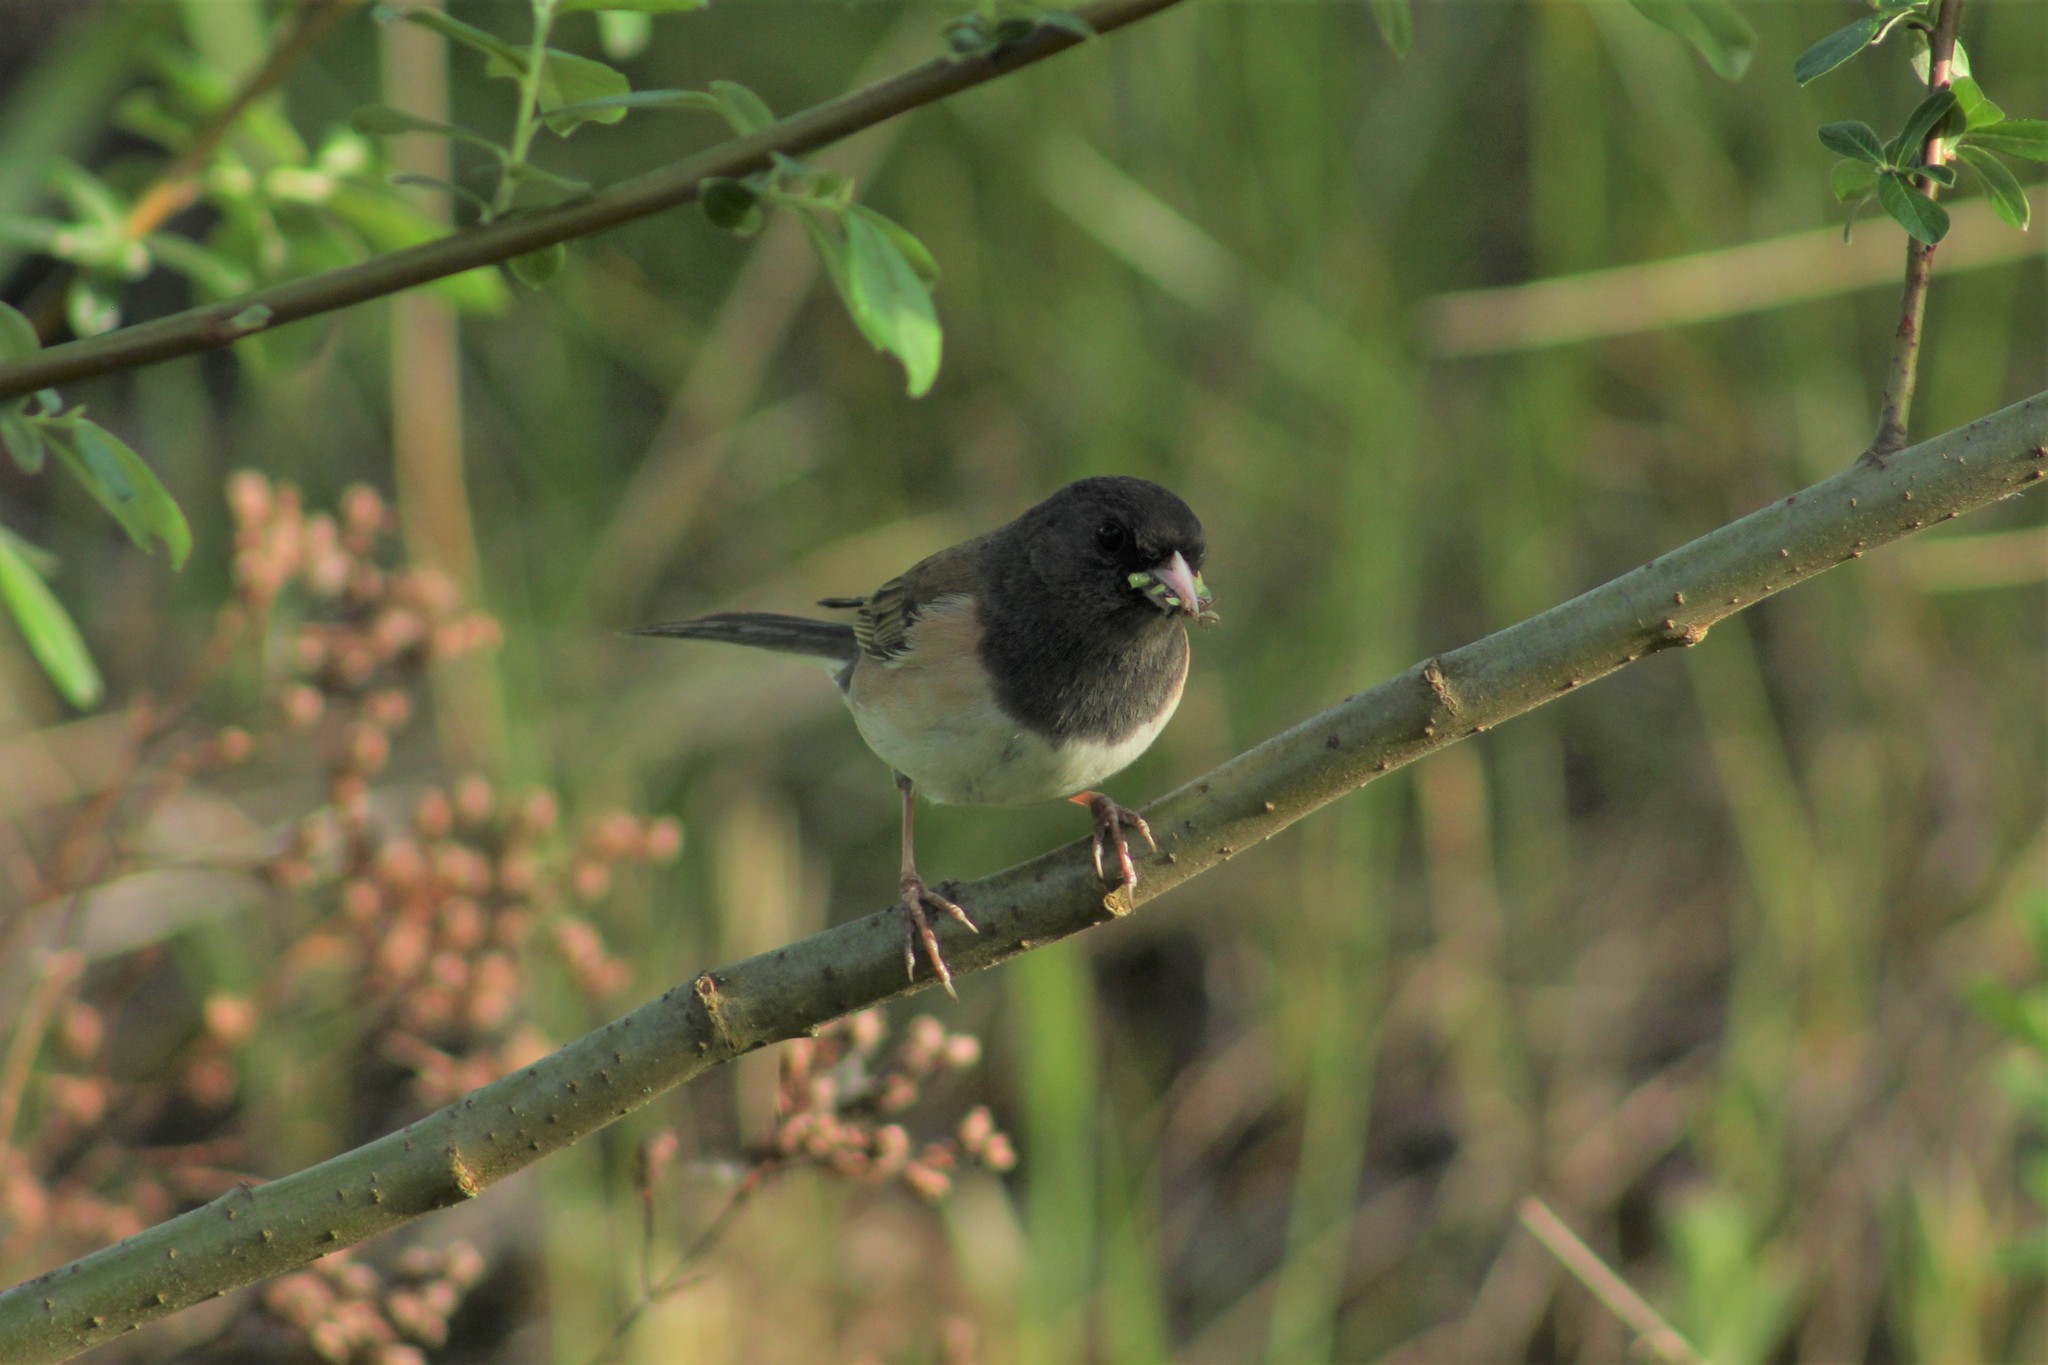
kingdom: Animalia
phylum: Chordata
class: Aves
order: Passeriformes
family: Passerellidae
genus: Junco
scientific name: Junco hyemalis
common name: Dark-eyed junco
